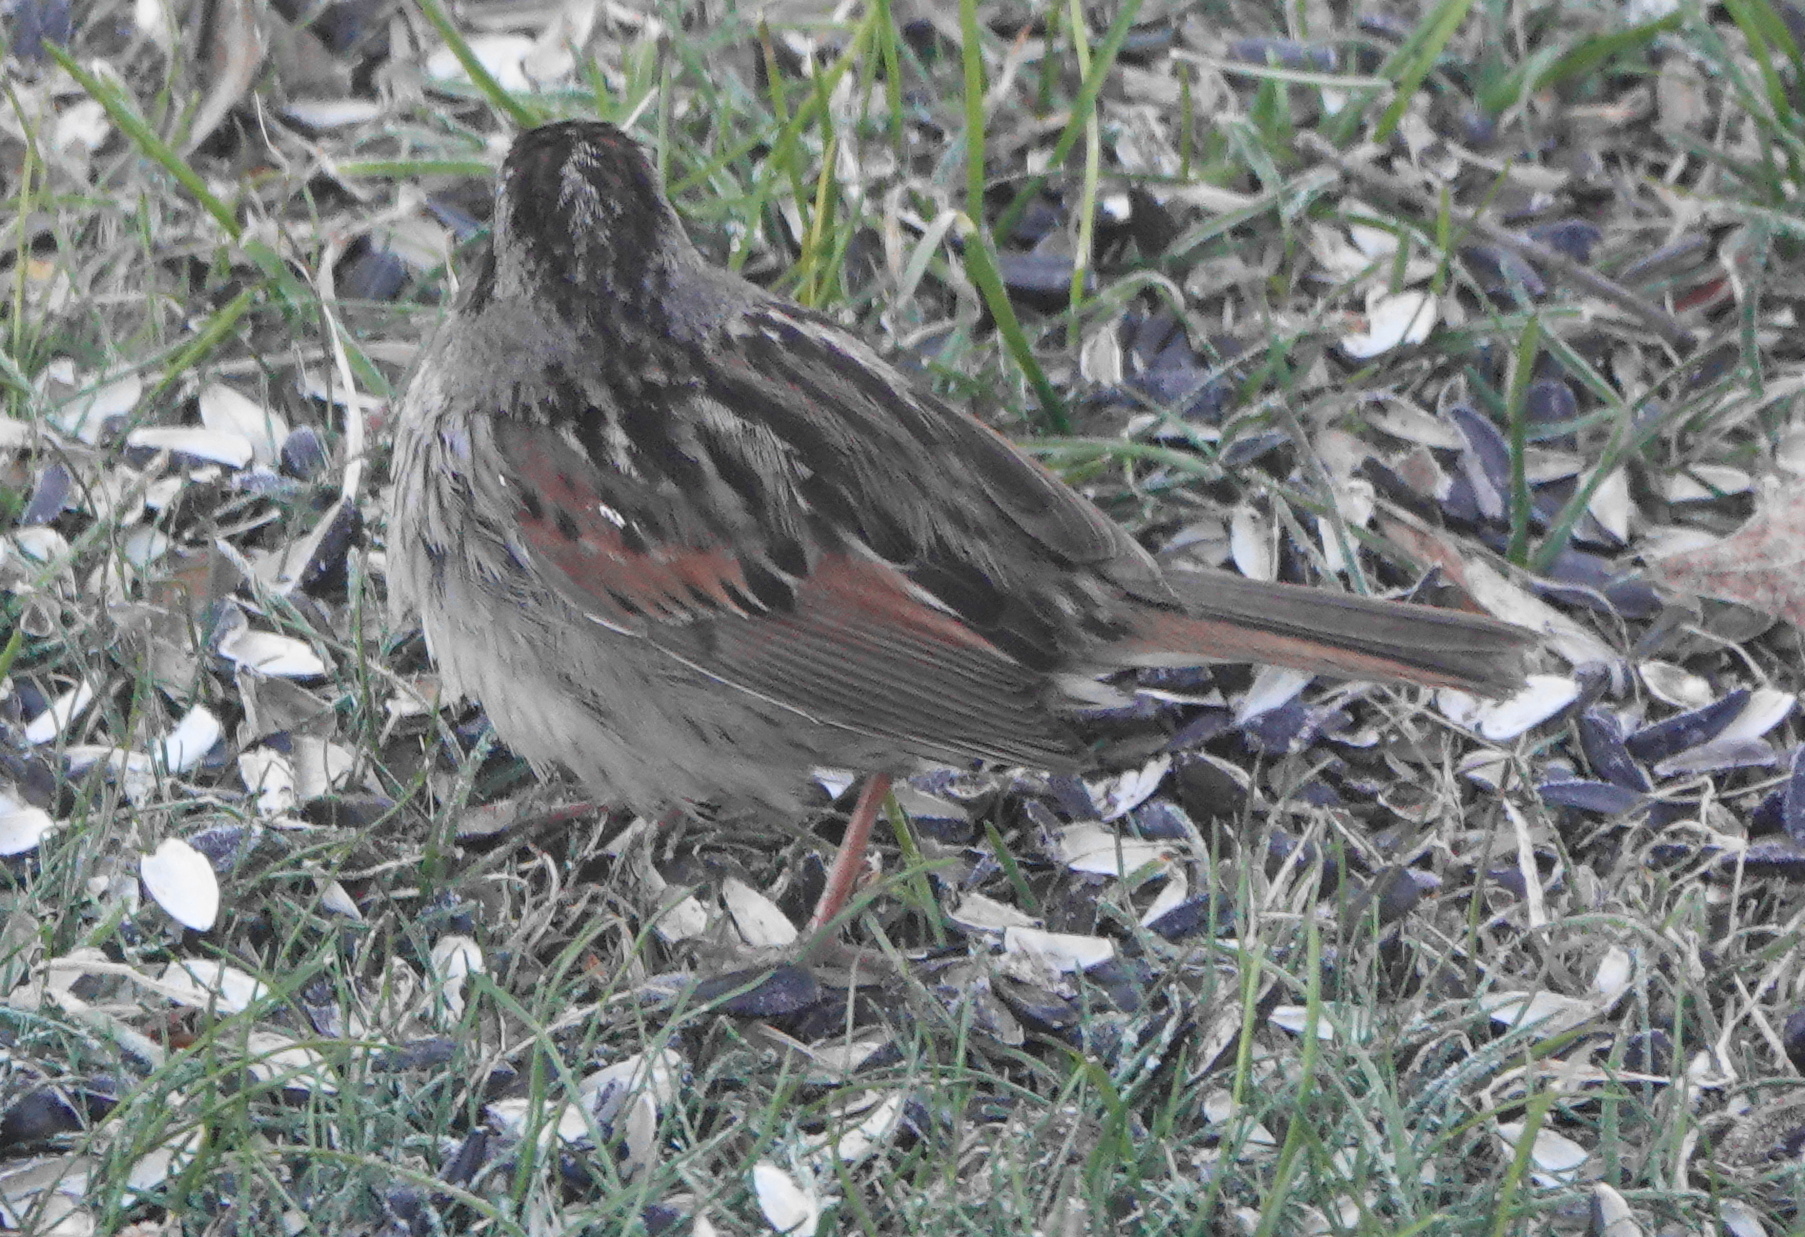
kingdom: Animalia
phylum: Chordata
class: Aves
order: Passeriformes
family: Passerellidae
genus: Melospiza
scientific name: Melospiza georgiana
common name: Swamp sparrow
